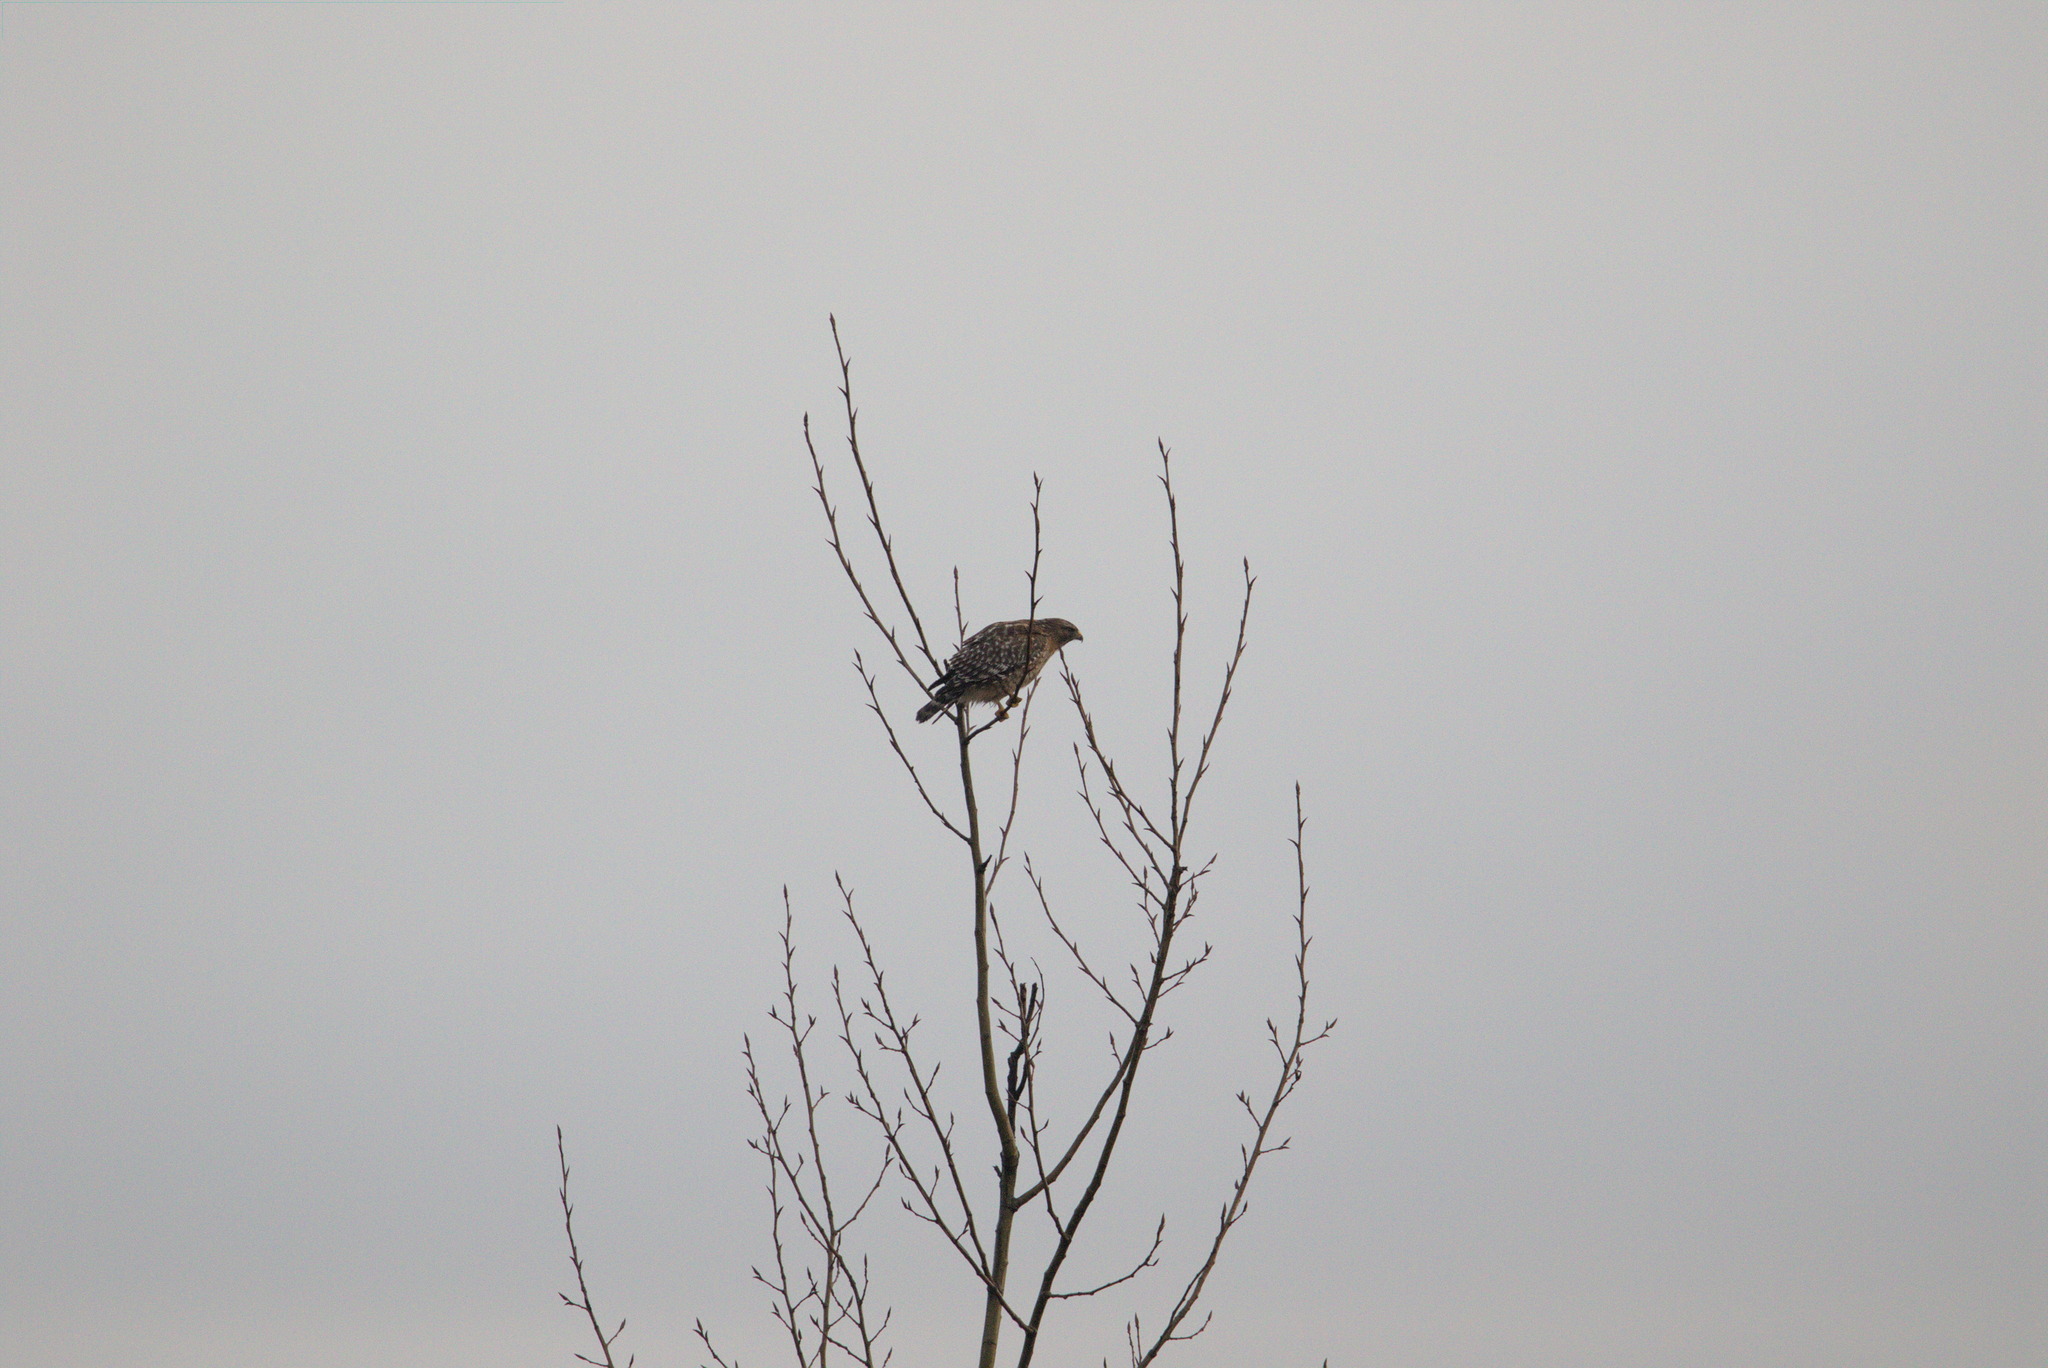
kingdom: Animalia
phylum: Chordata
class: Aves
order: Accipitriformes
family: Accipitridae
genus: Buteo
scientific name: Buteo lineatus
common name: Red-shouldered hawk
